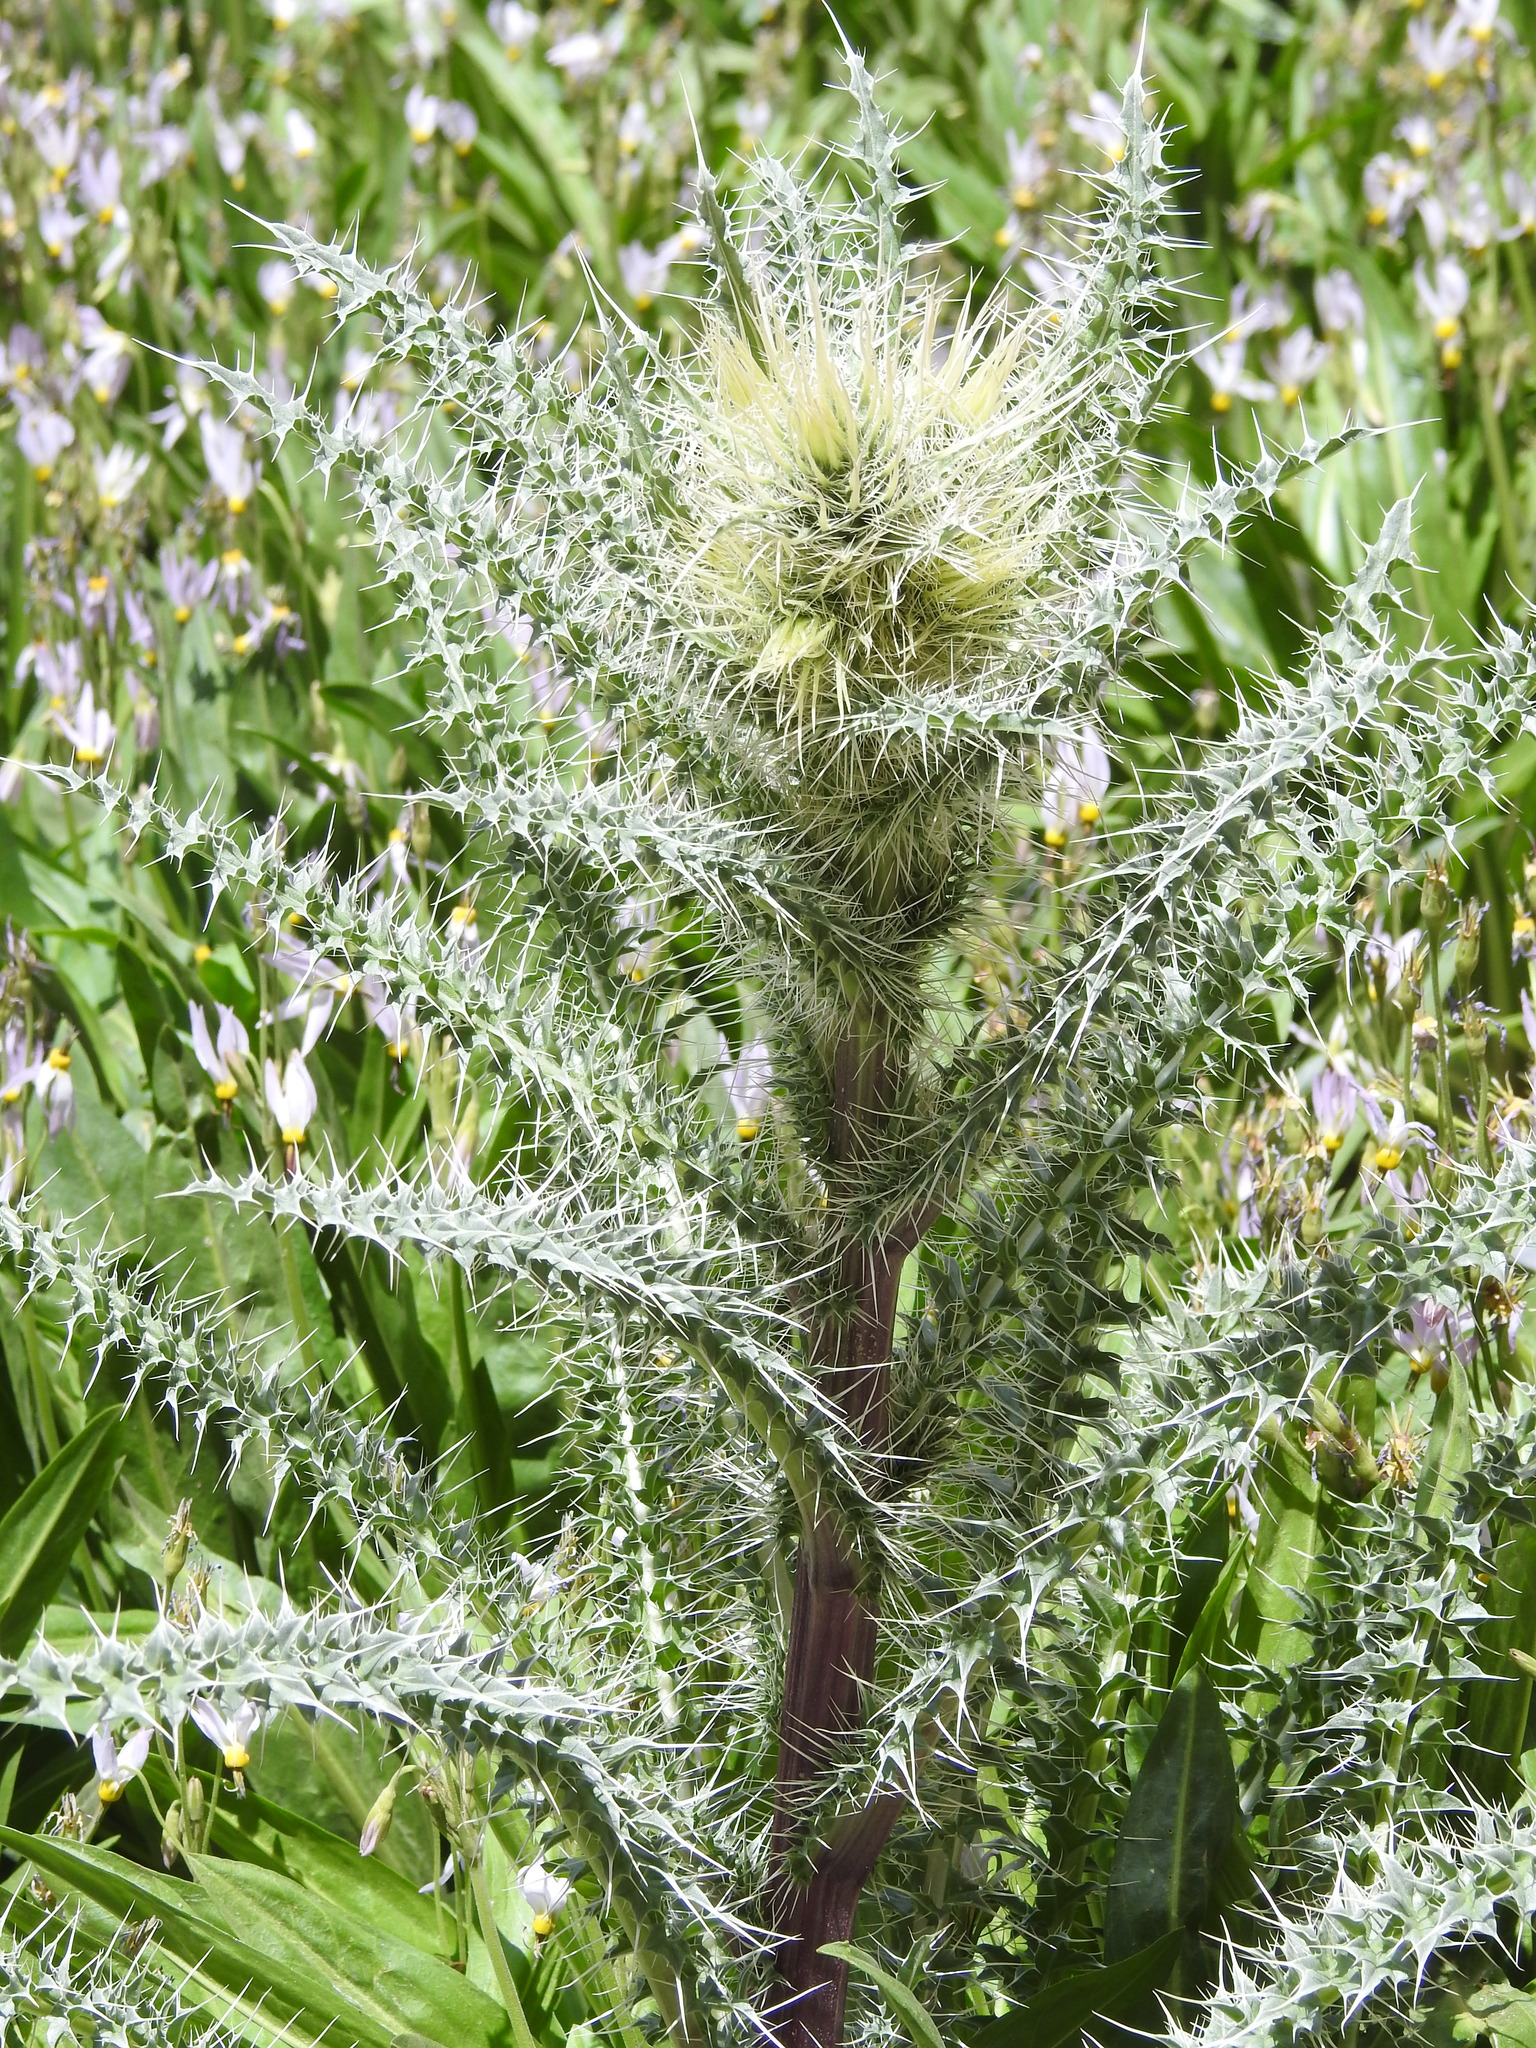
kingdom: Plantae
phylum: Tracheophyta
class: Magnoliopsida
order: Asterales
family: Asteraceae
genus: Cirsium
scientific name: Cirsium eatonii
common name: Eaton's thistle
